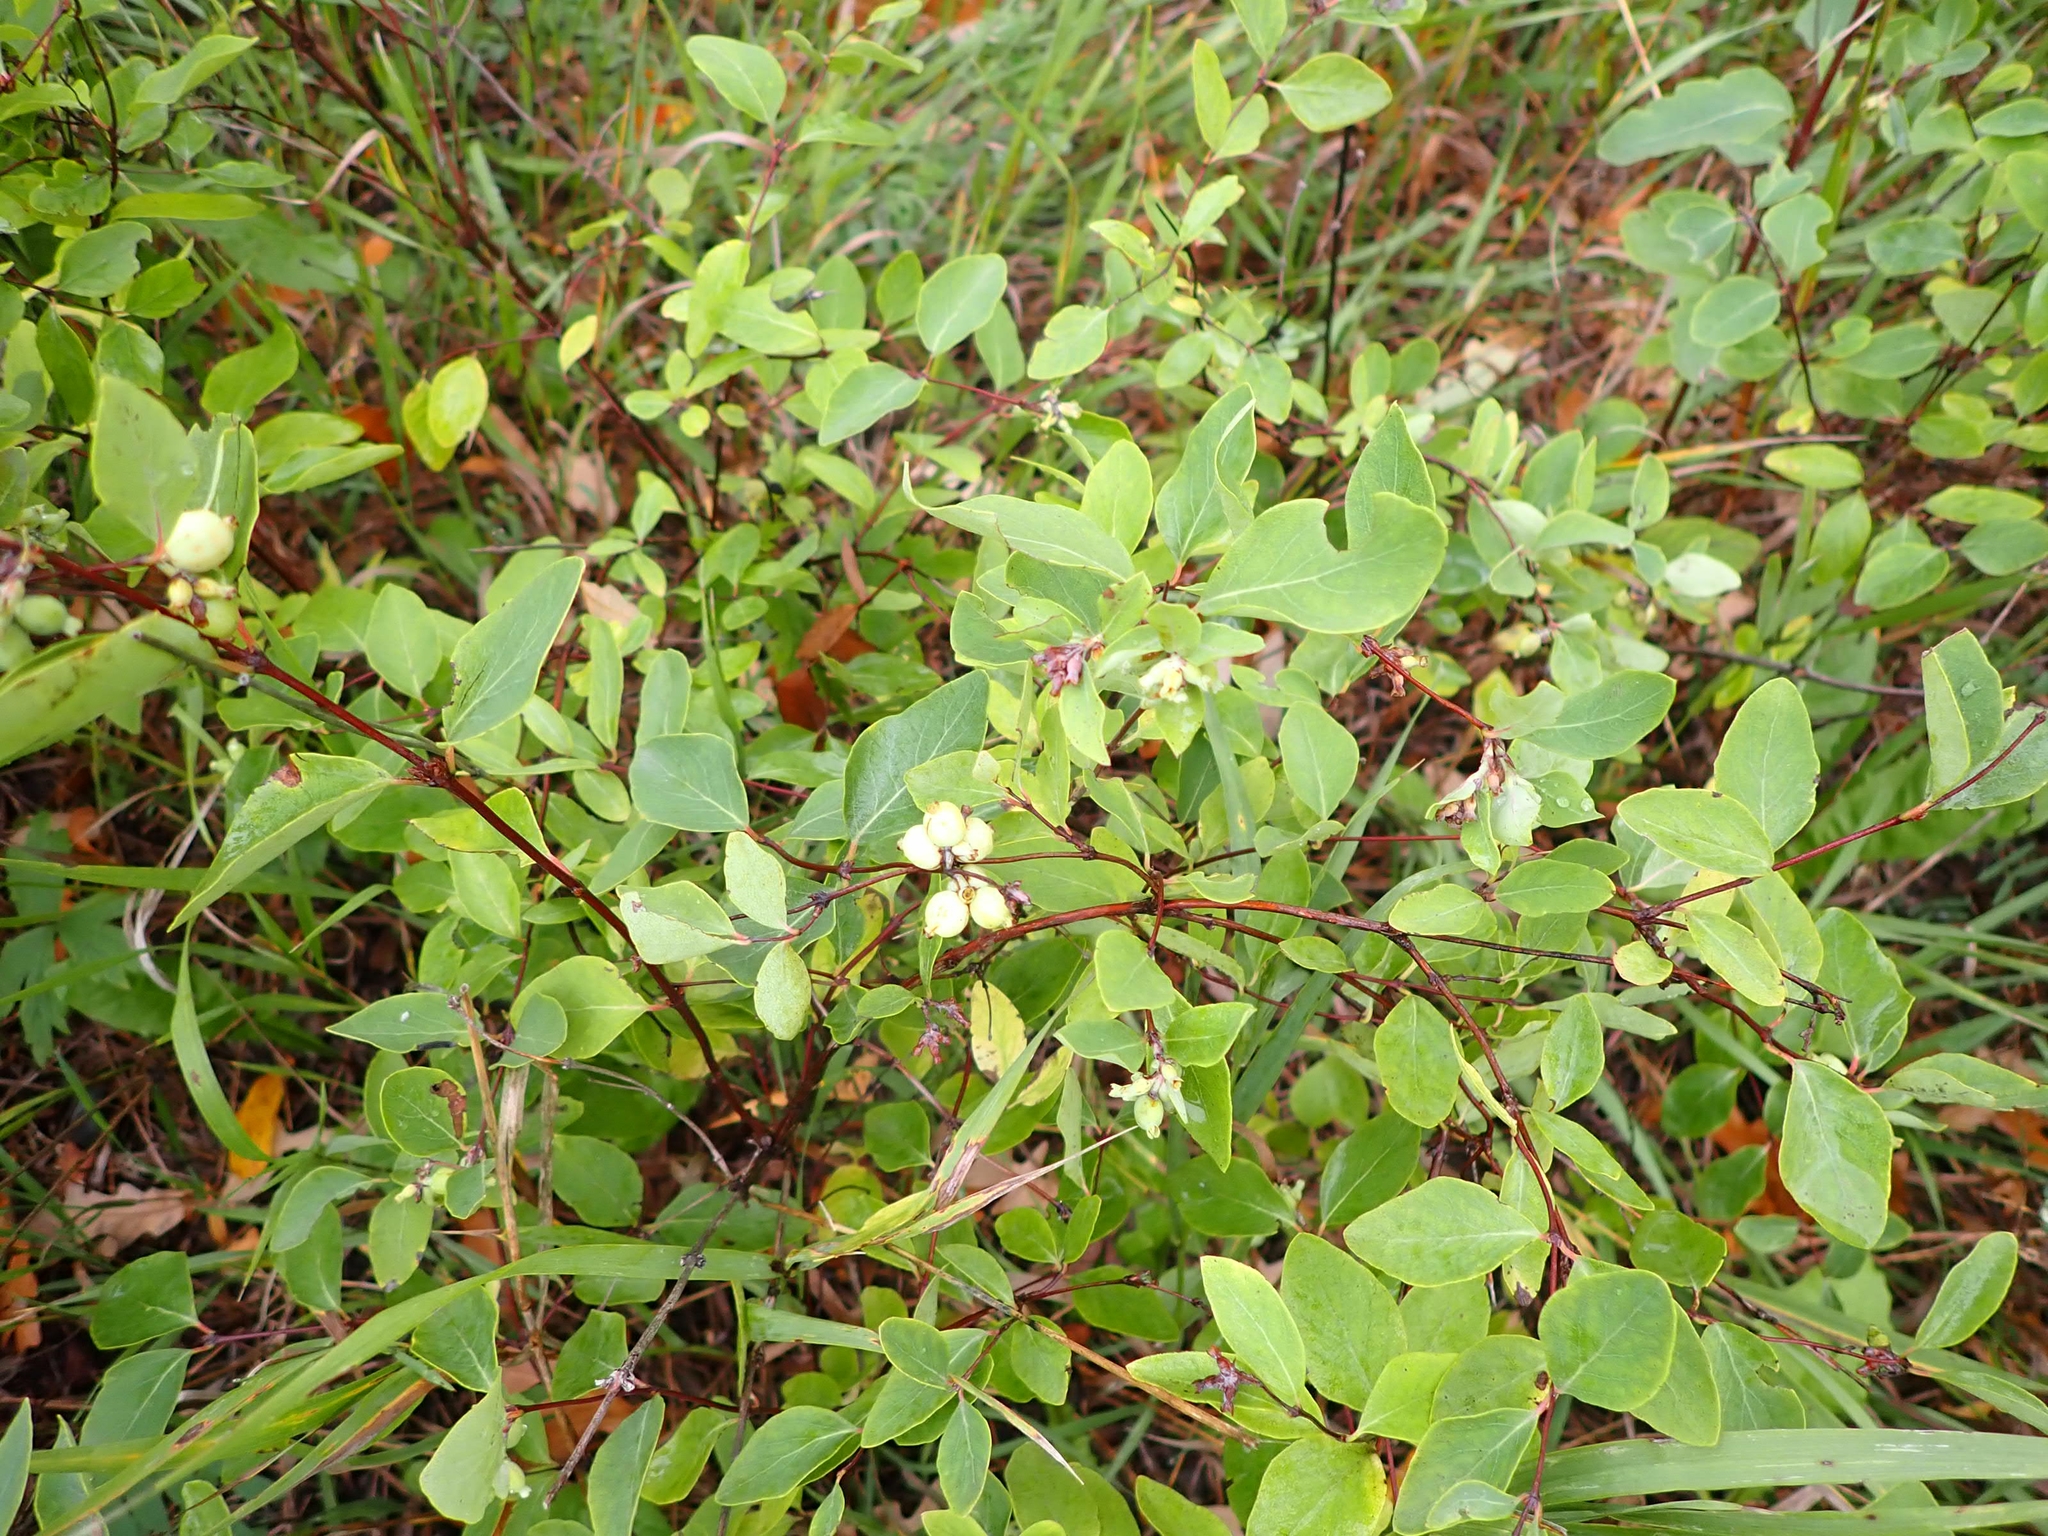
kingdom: Plantae
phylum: Tracheophyta
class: Magnoliopsida
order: Dipsacales
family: Caprifoliaceae
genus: Symphoricarpos
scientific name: Symphoricarpos occidentalis
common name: Wolfberry
